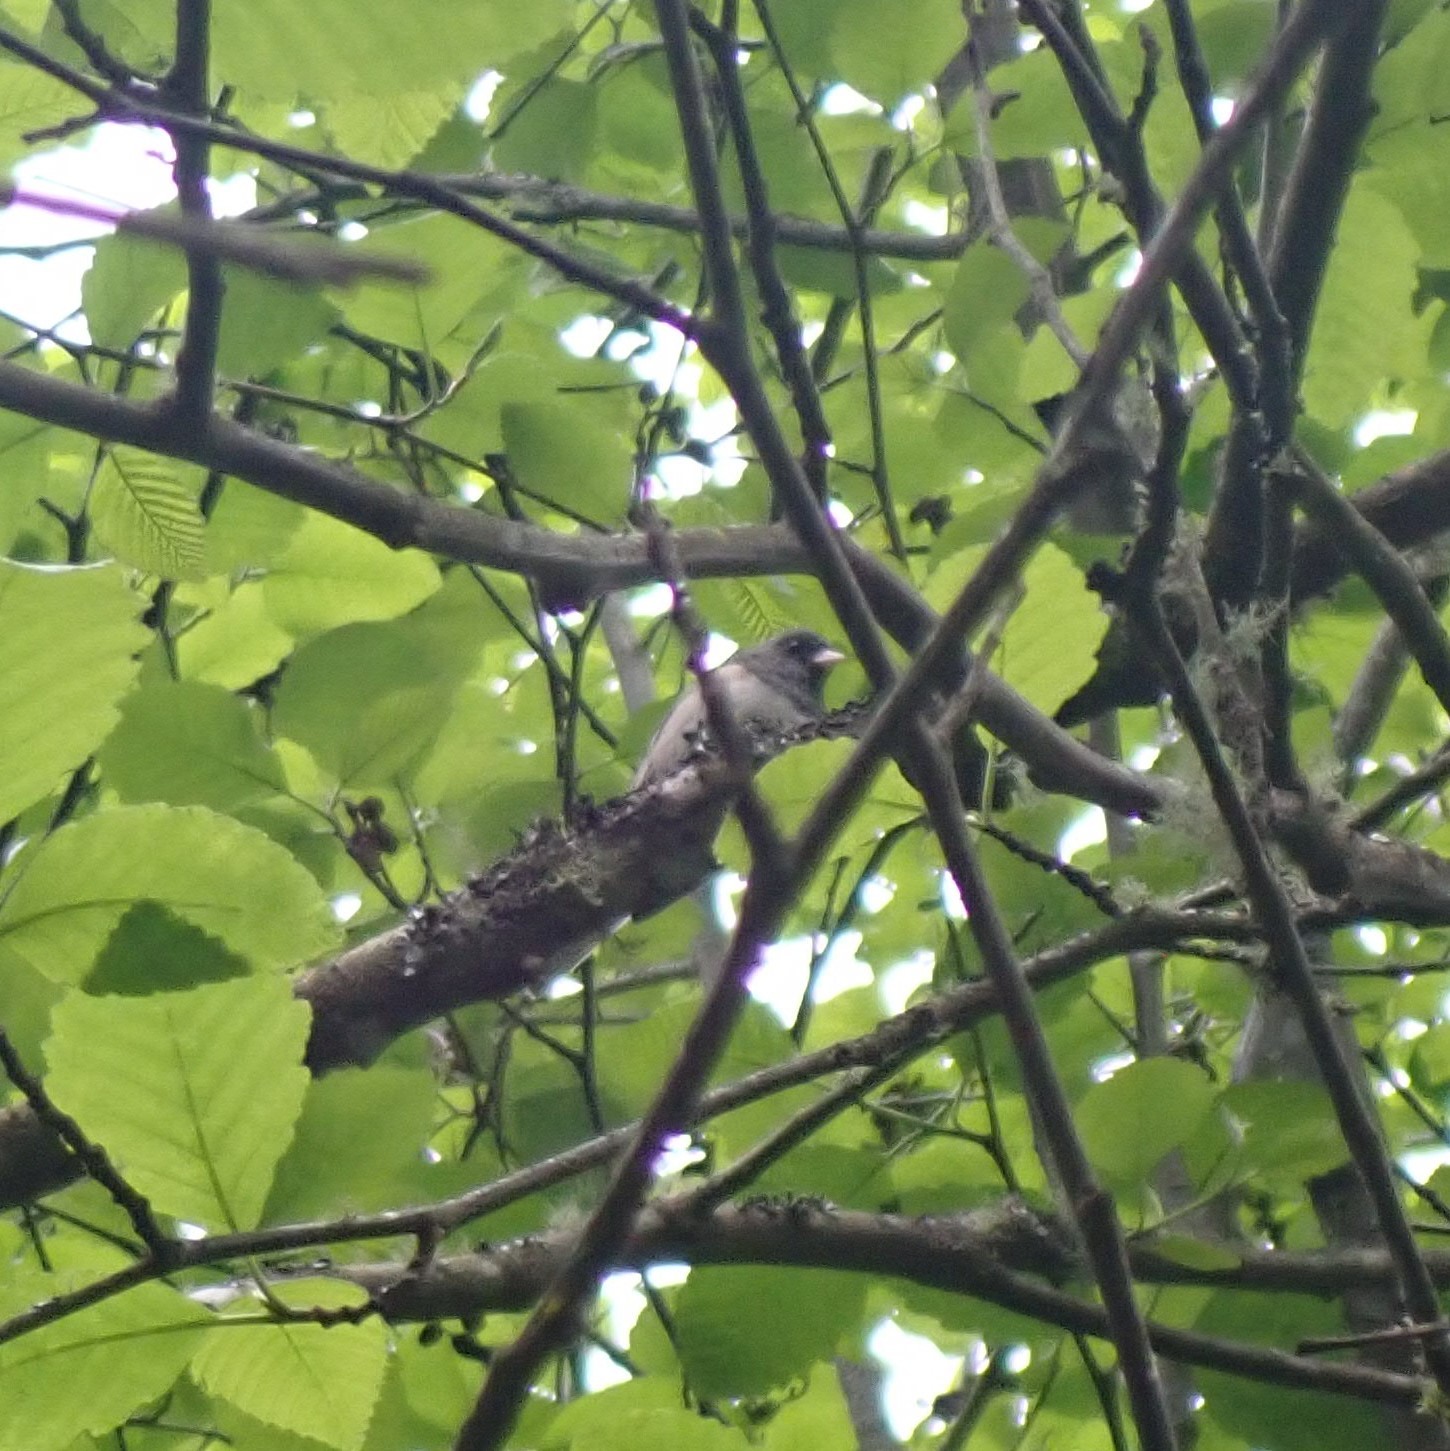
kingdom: Animalia
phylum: Chordata
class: Aves
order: Passeriformes
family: Passerellidae
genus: Junco
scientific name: Junco hyemalis
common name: Dark-eyed junco
